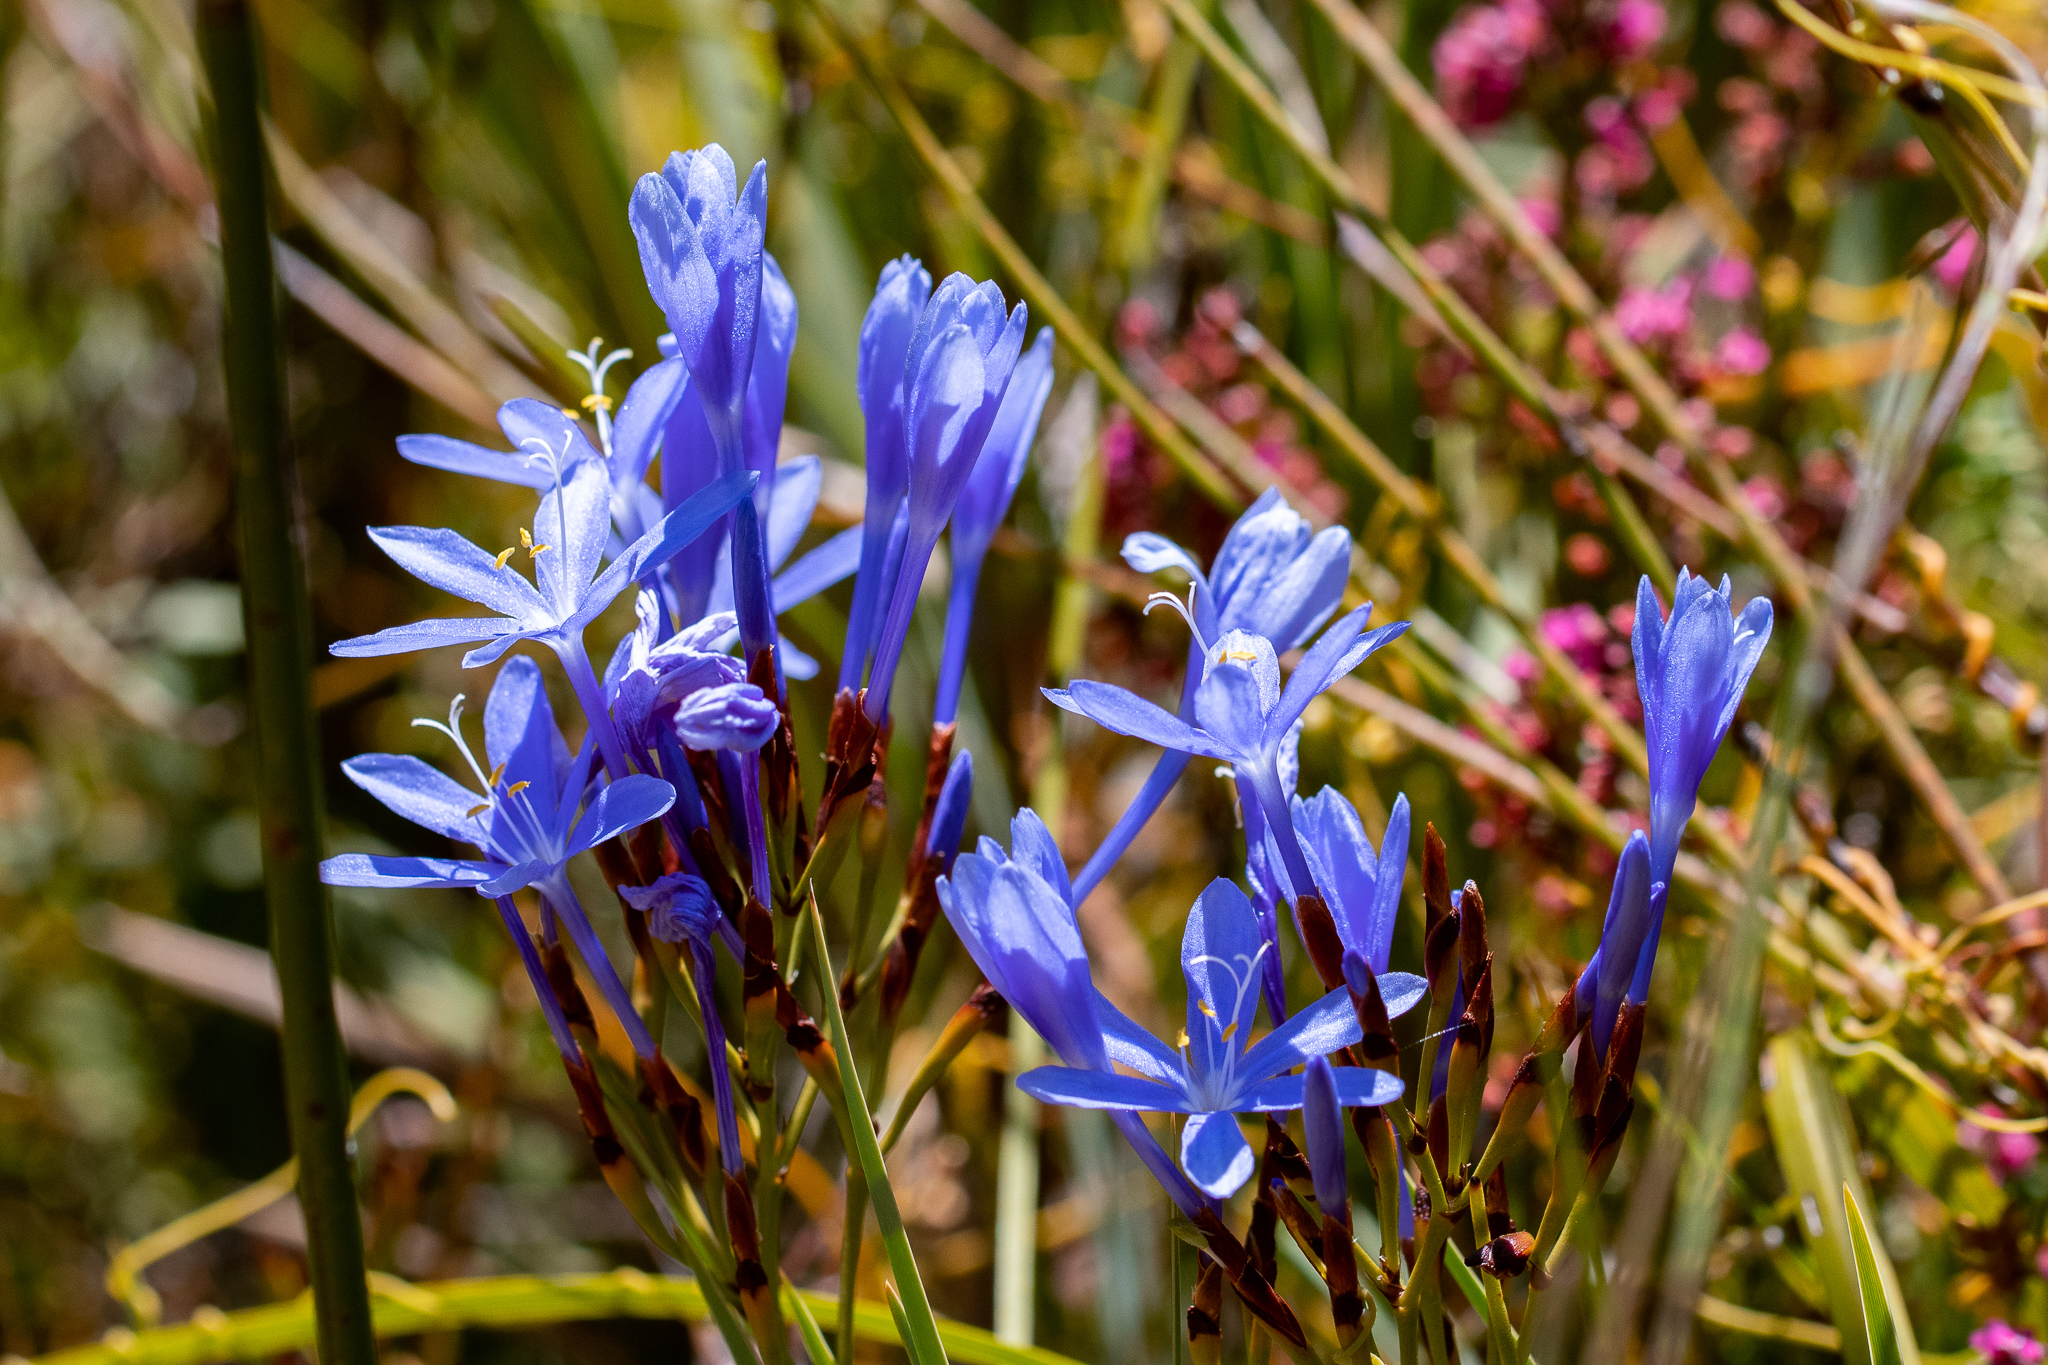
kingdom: Plantae
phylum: Tracheophyta
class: Liliopsida
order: Asparagales
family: Iridaceae
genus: Nivenia
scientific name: Nivenia stokoei
